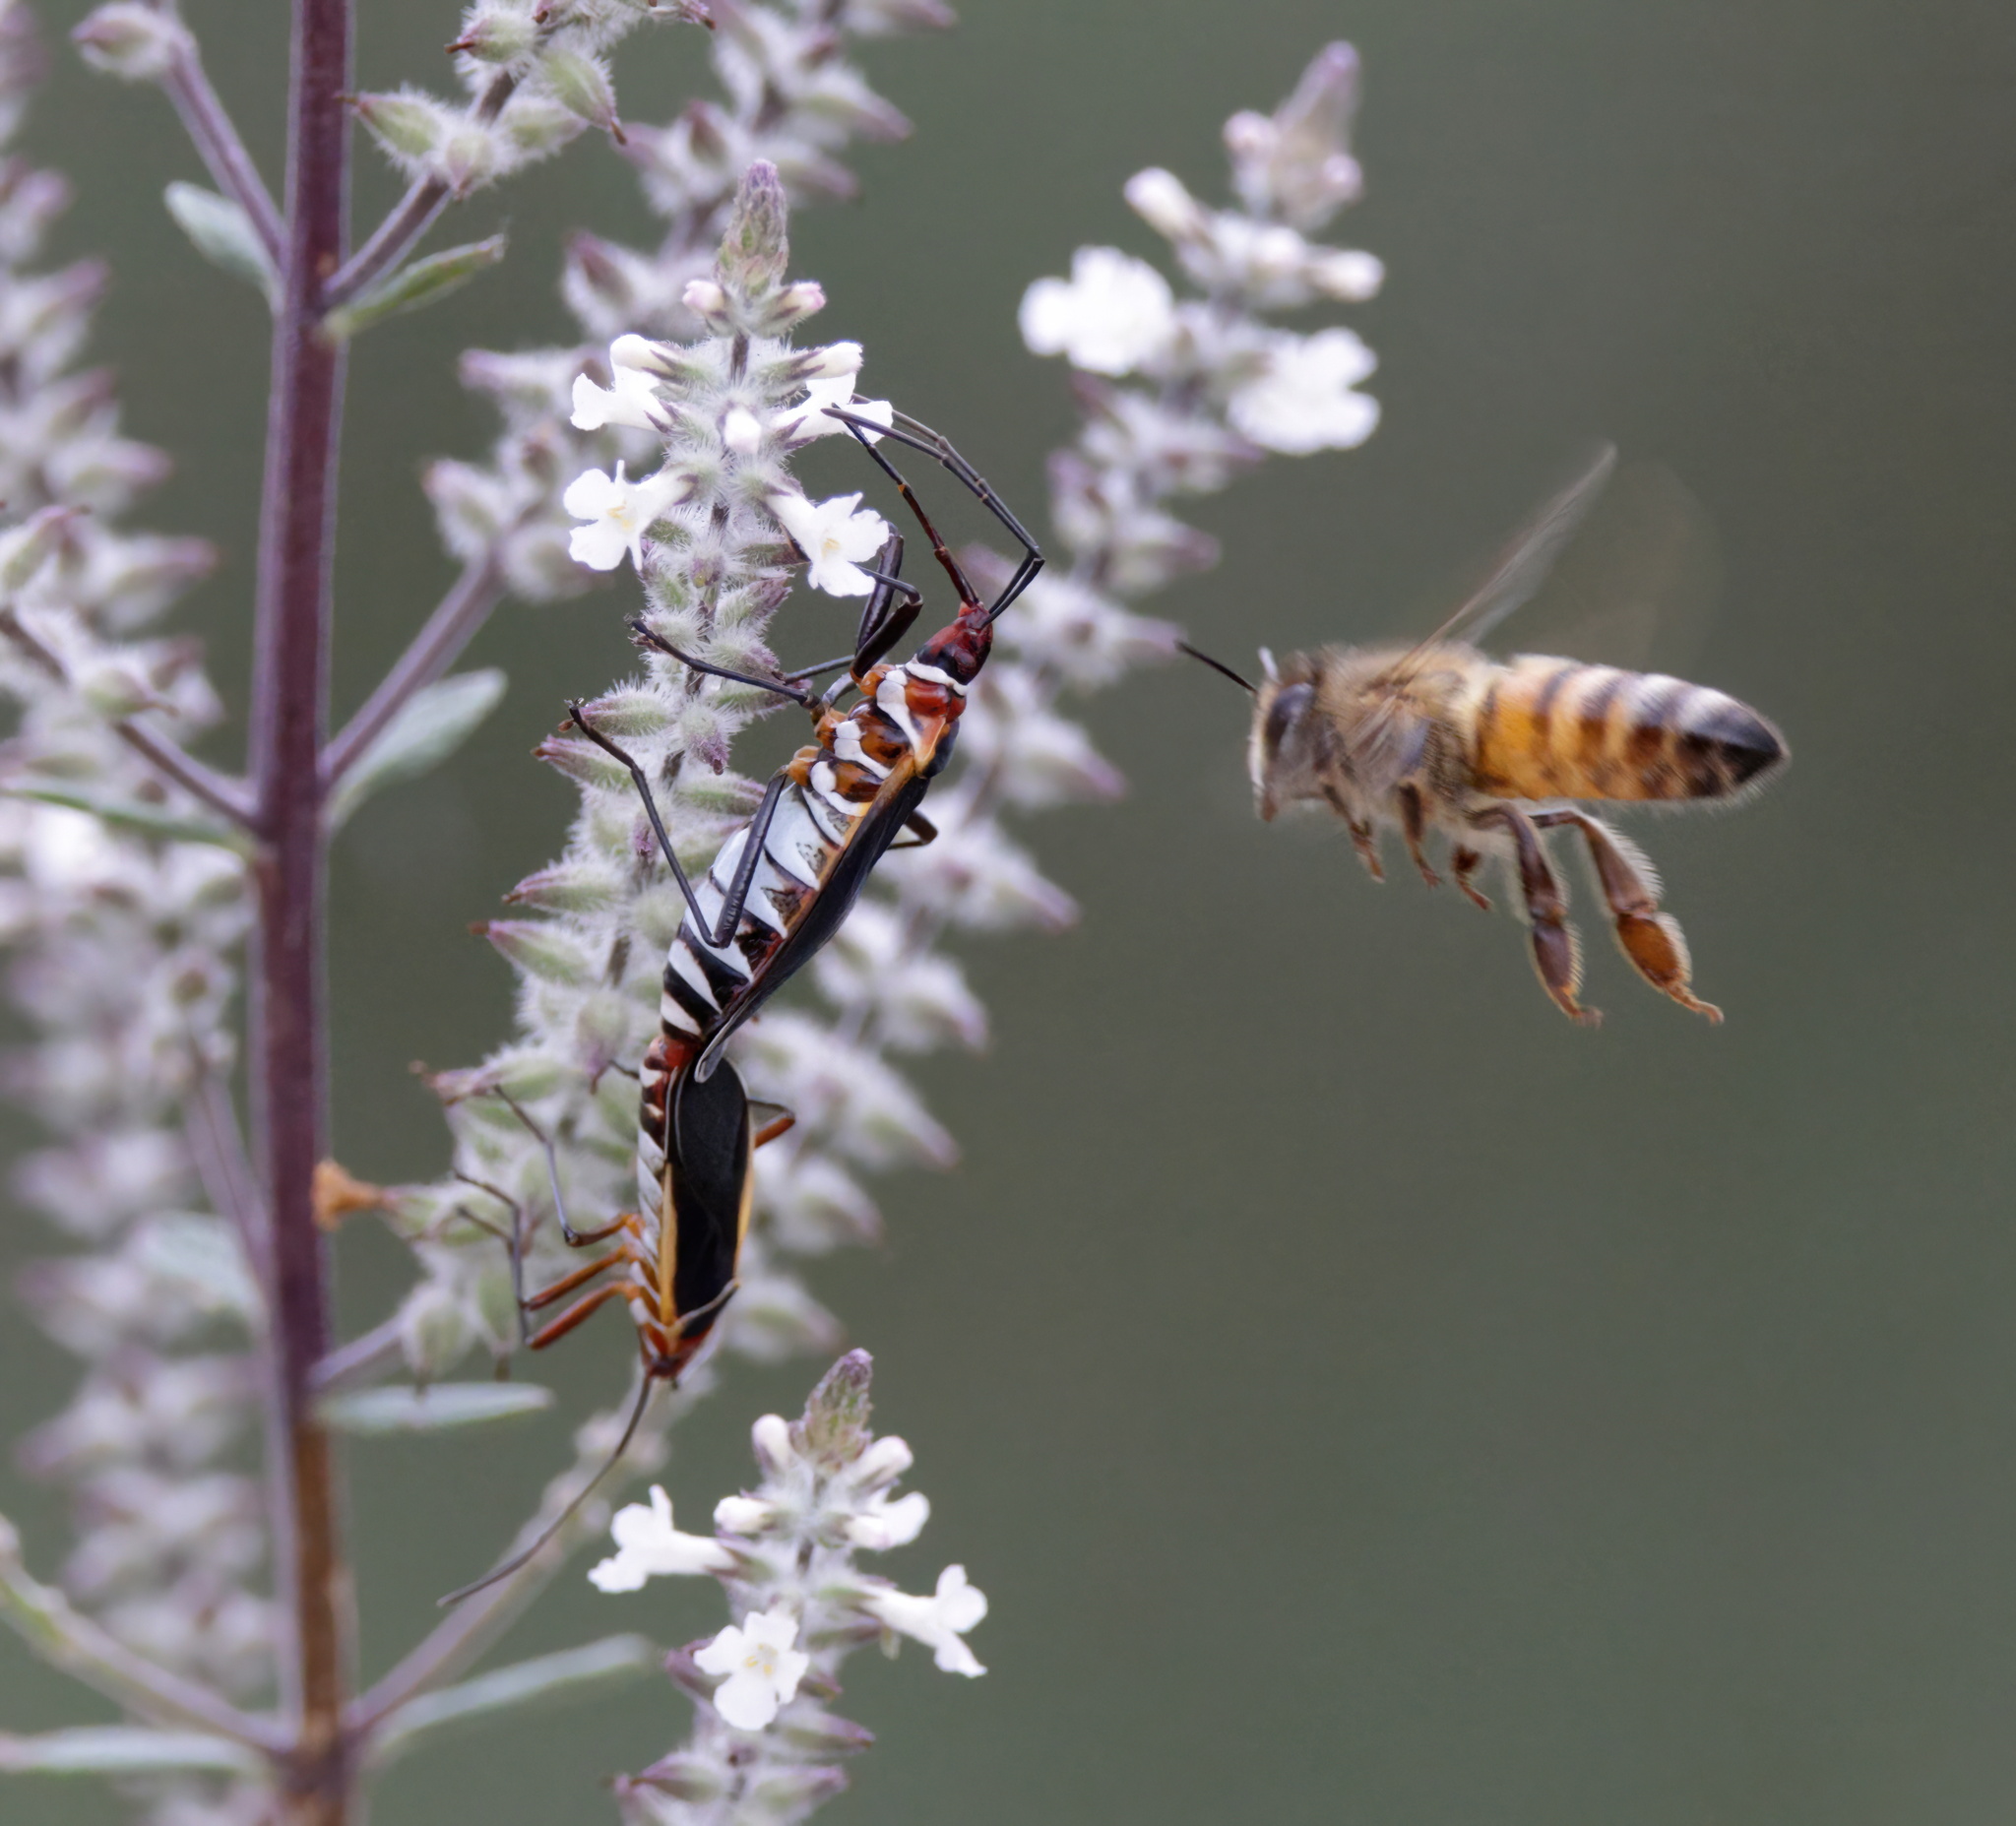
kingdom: Animalia
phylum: Arthropoda
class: Insecta
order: Hymenoptera
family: Apidae
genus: Apis
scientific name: Apis mellifera
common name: Honey bee
